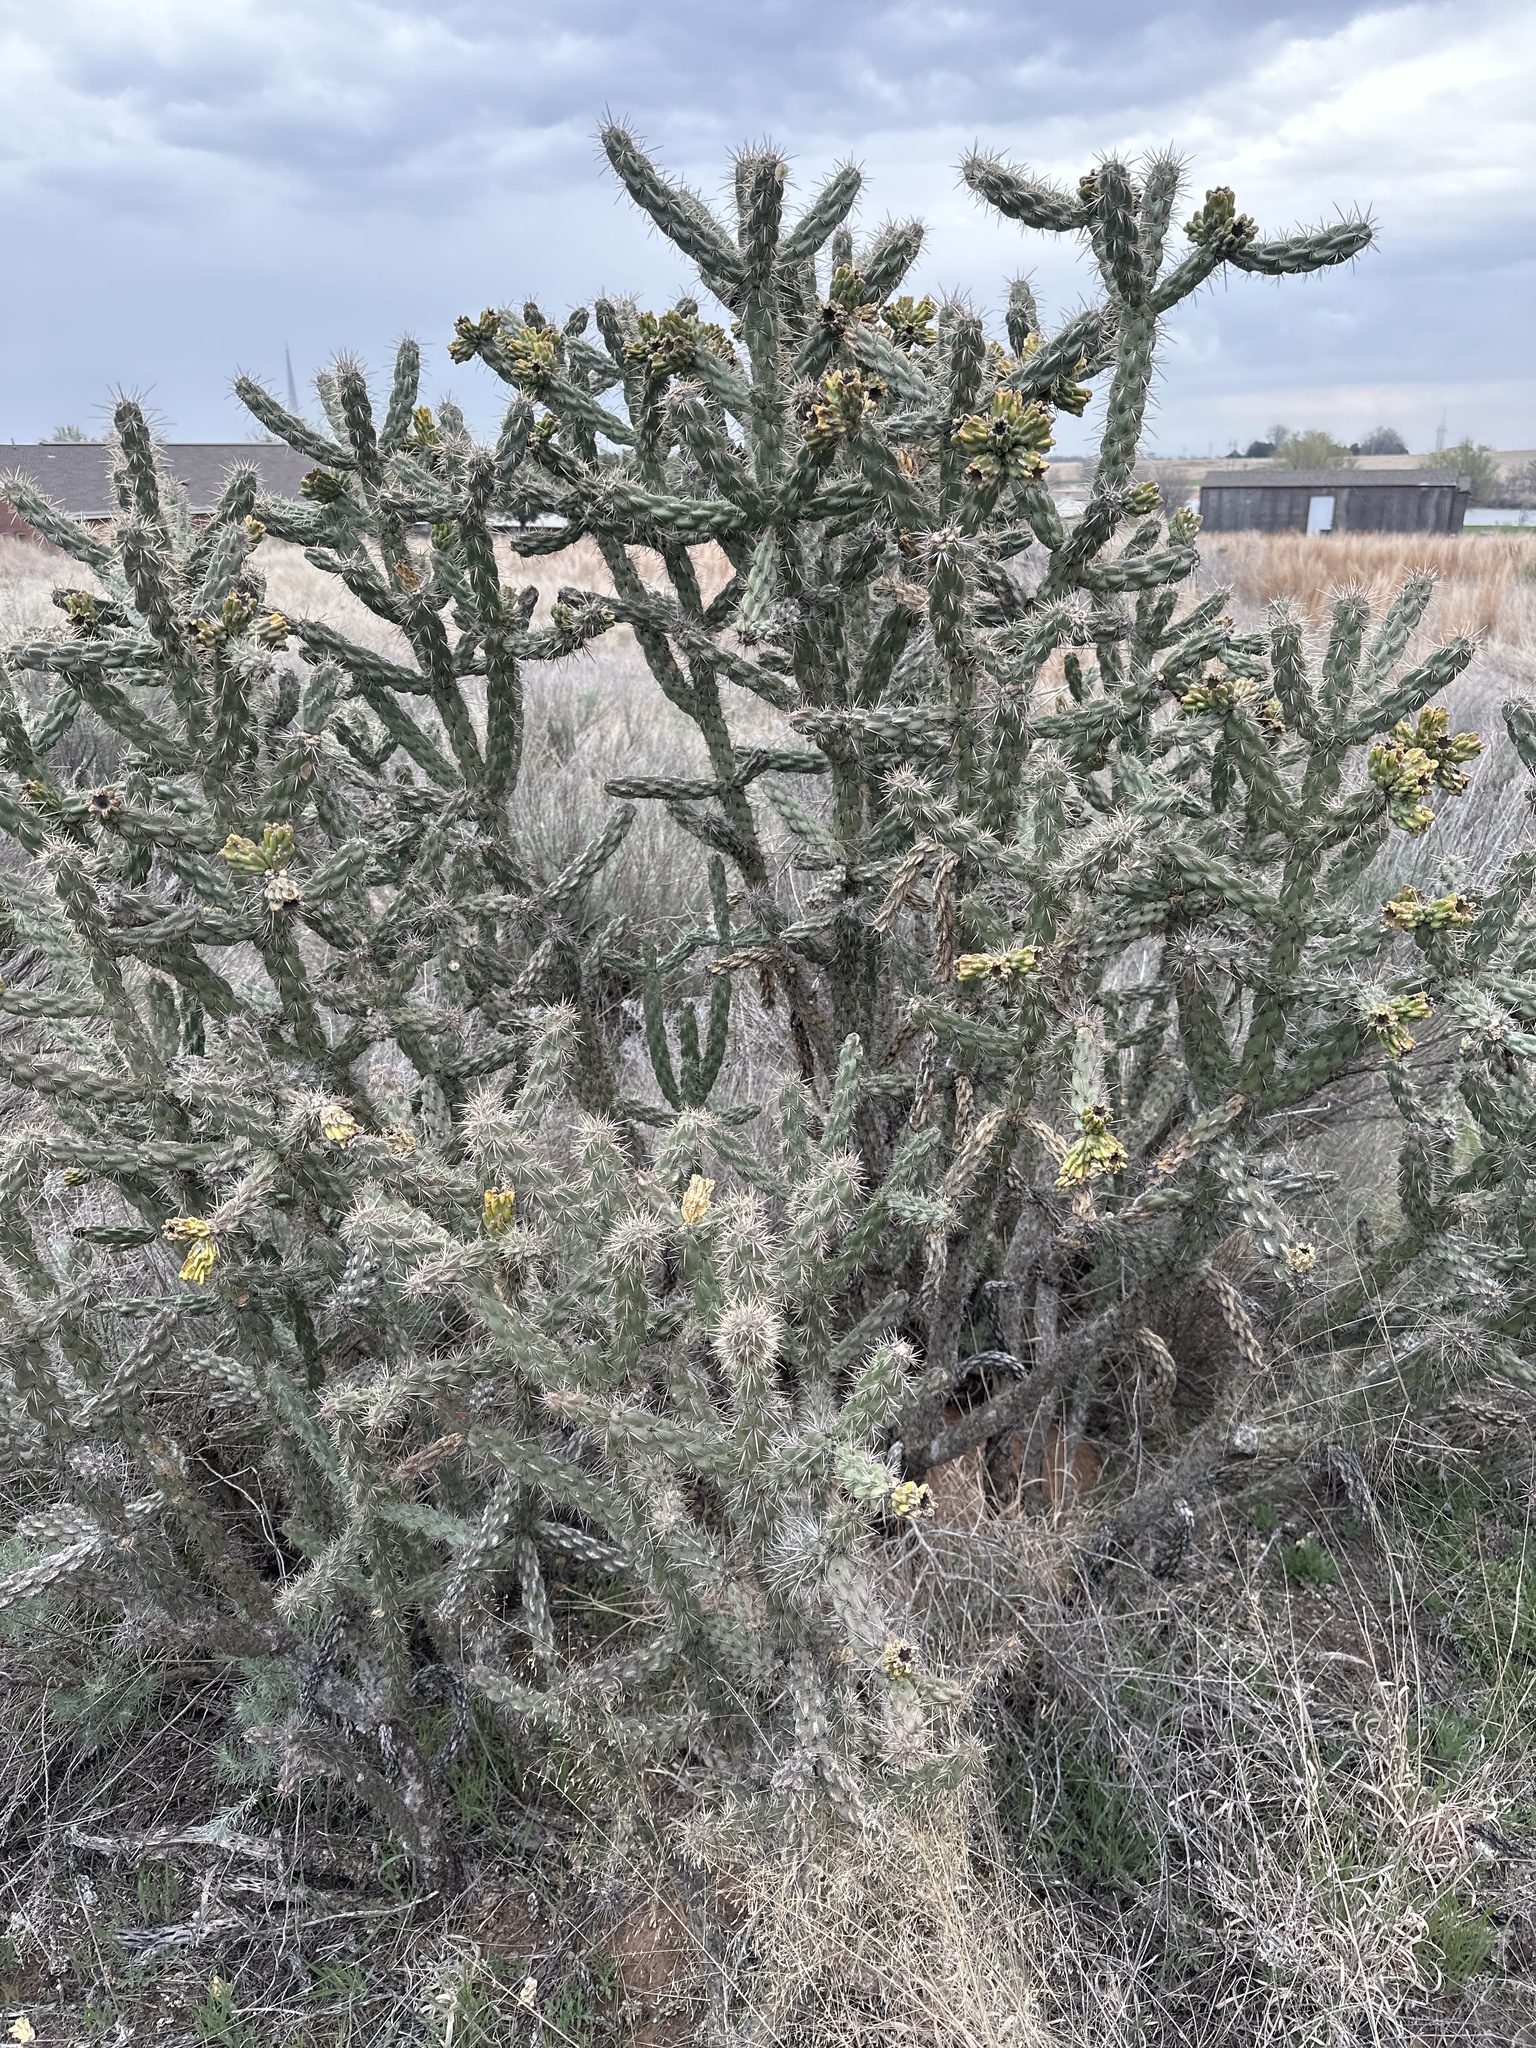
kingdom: Plantae
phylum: Tracheophyta
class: Magnoliopsida
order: Caryophyllales
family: Cactaceae
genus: Cylindropuntia
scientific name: Cylindropuntia imbricata
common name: Candelabrum cactus
